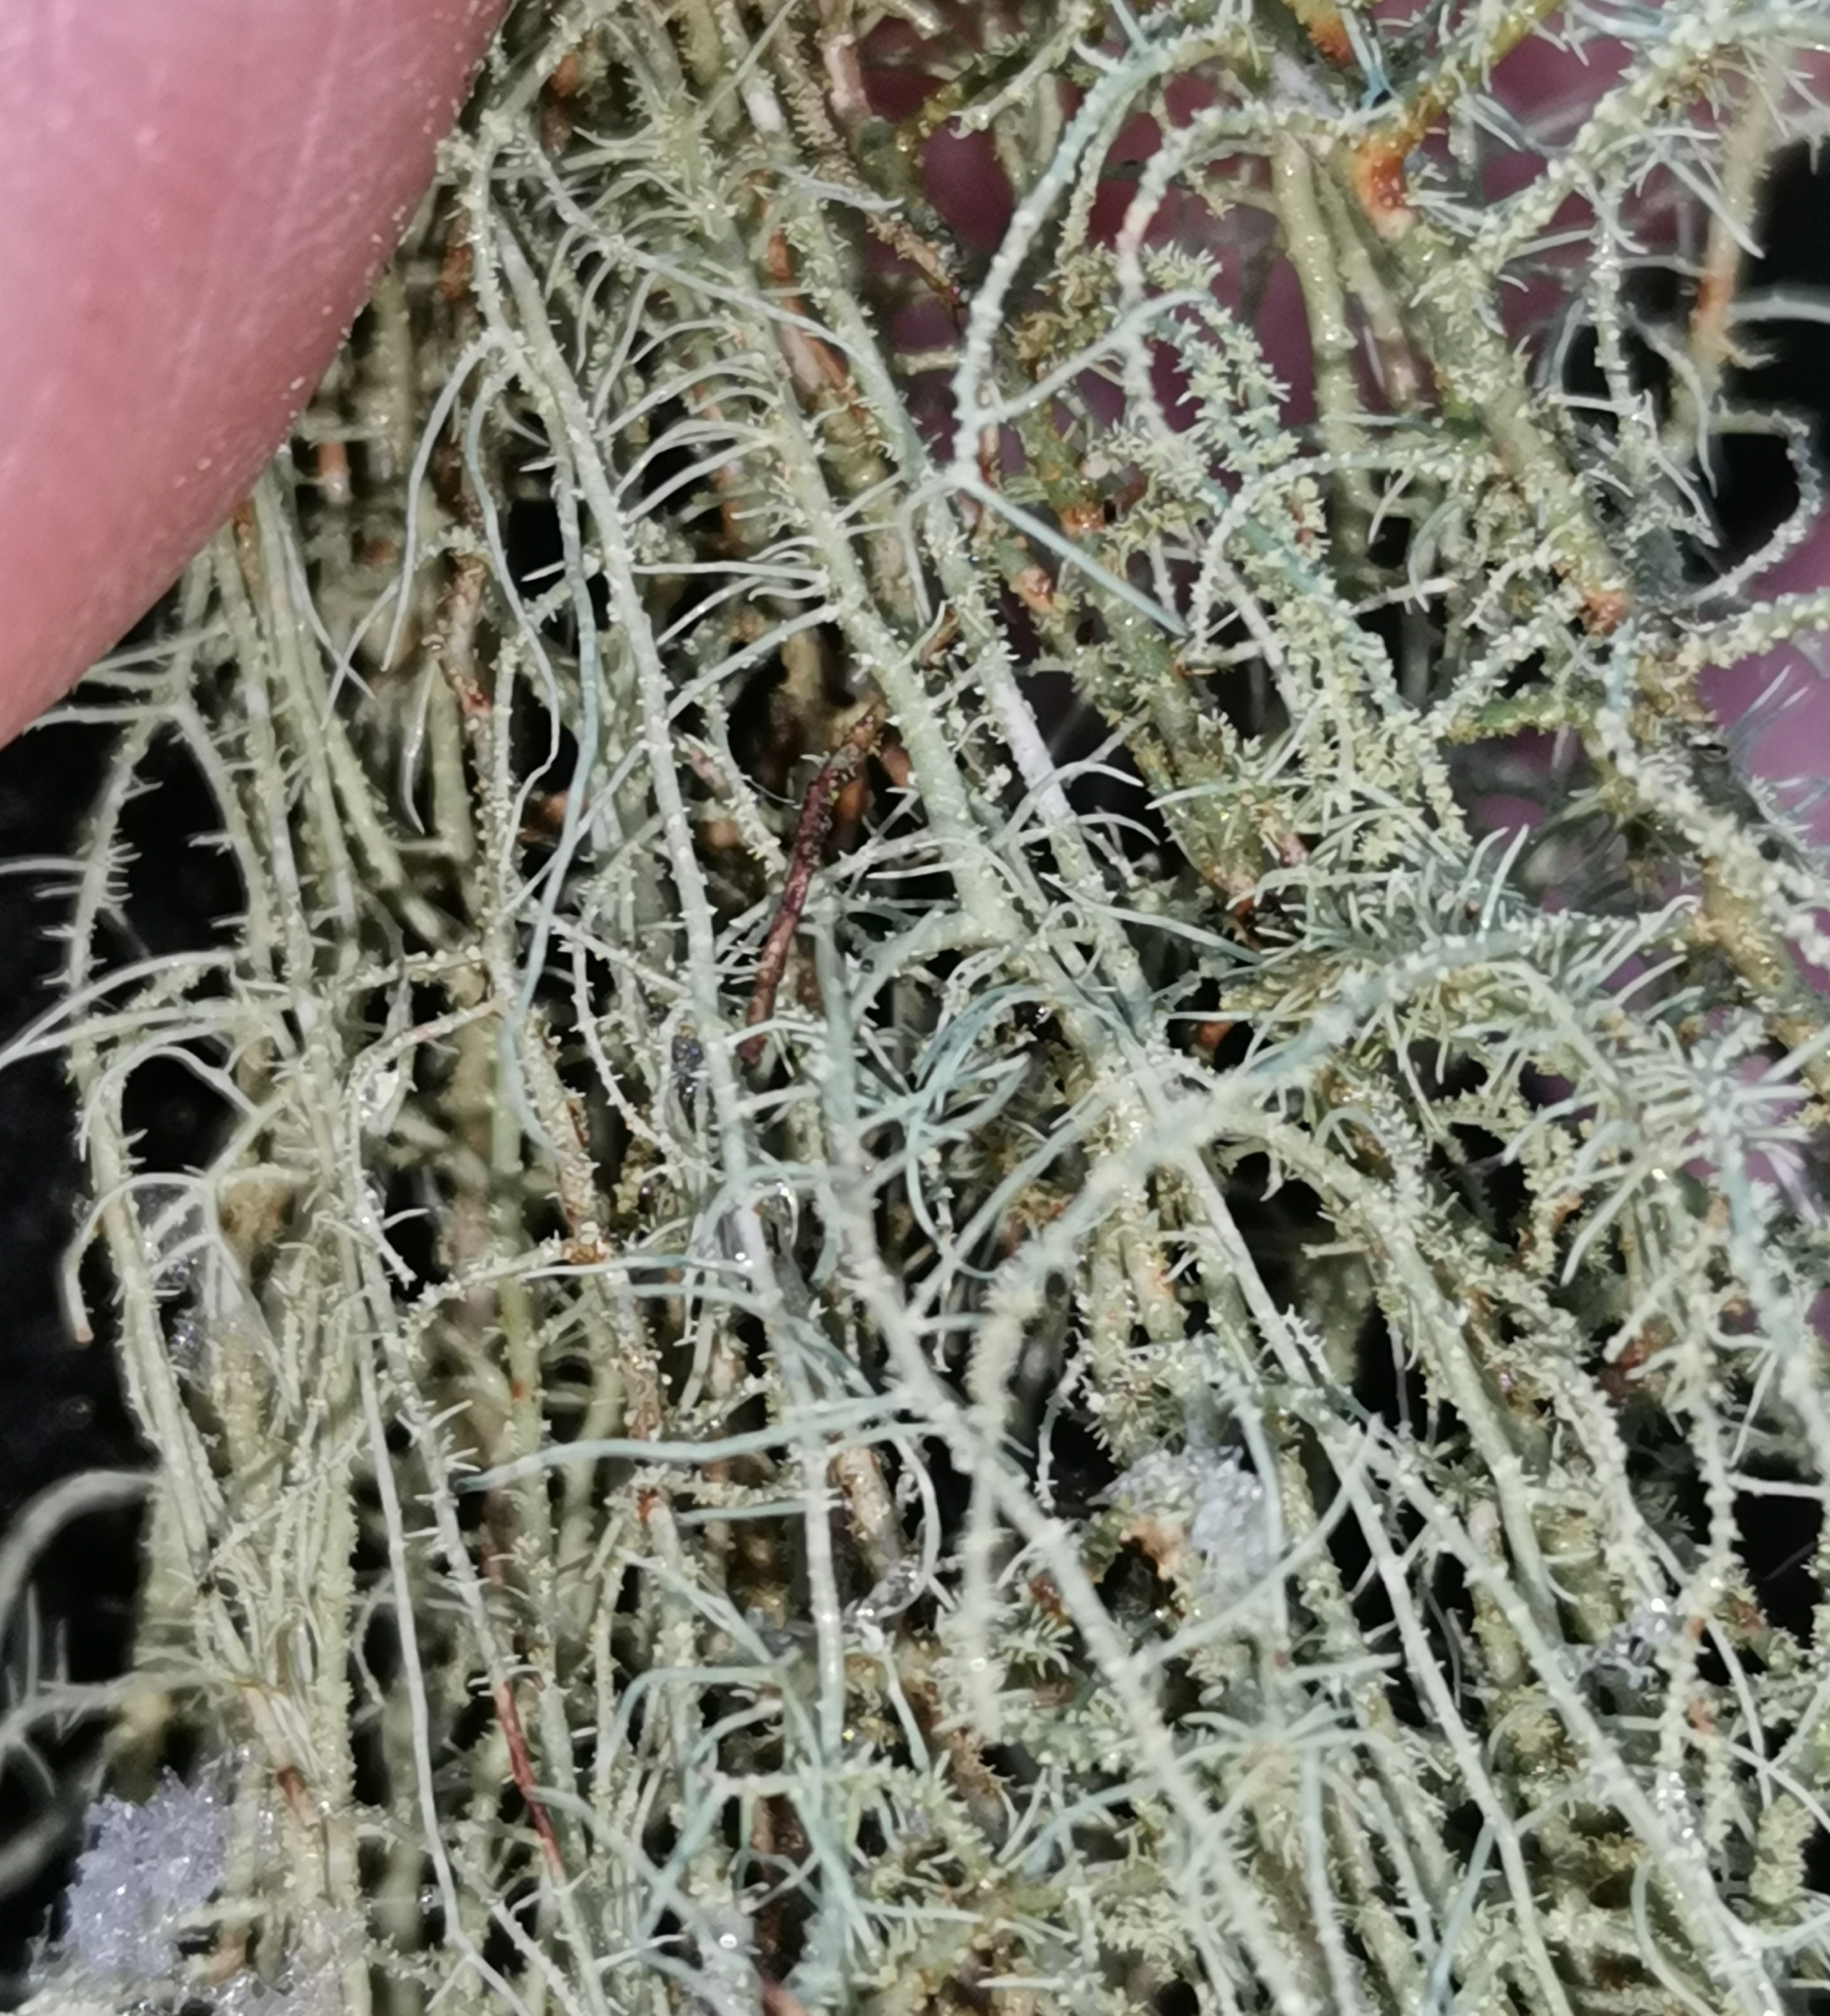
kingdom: Fungi
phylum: Ascomycota
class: Lecanoromycetes
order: Lecanorales
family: Parmeliaceae
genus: Usnea
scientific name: Usnea dasopoga
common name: Fishbone beard lichen
